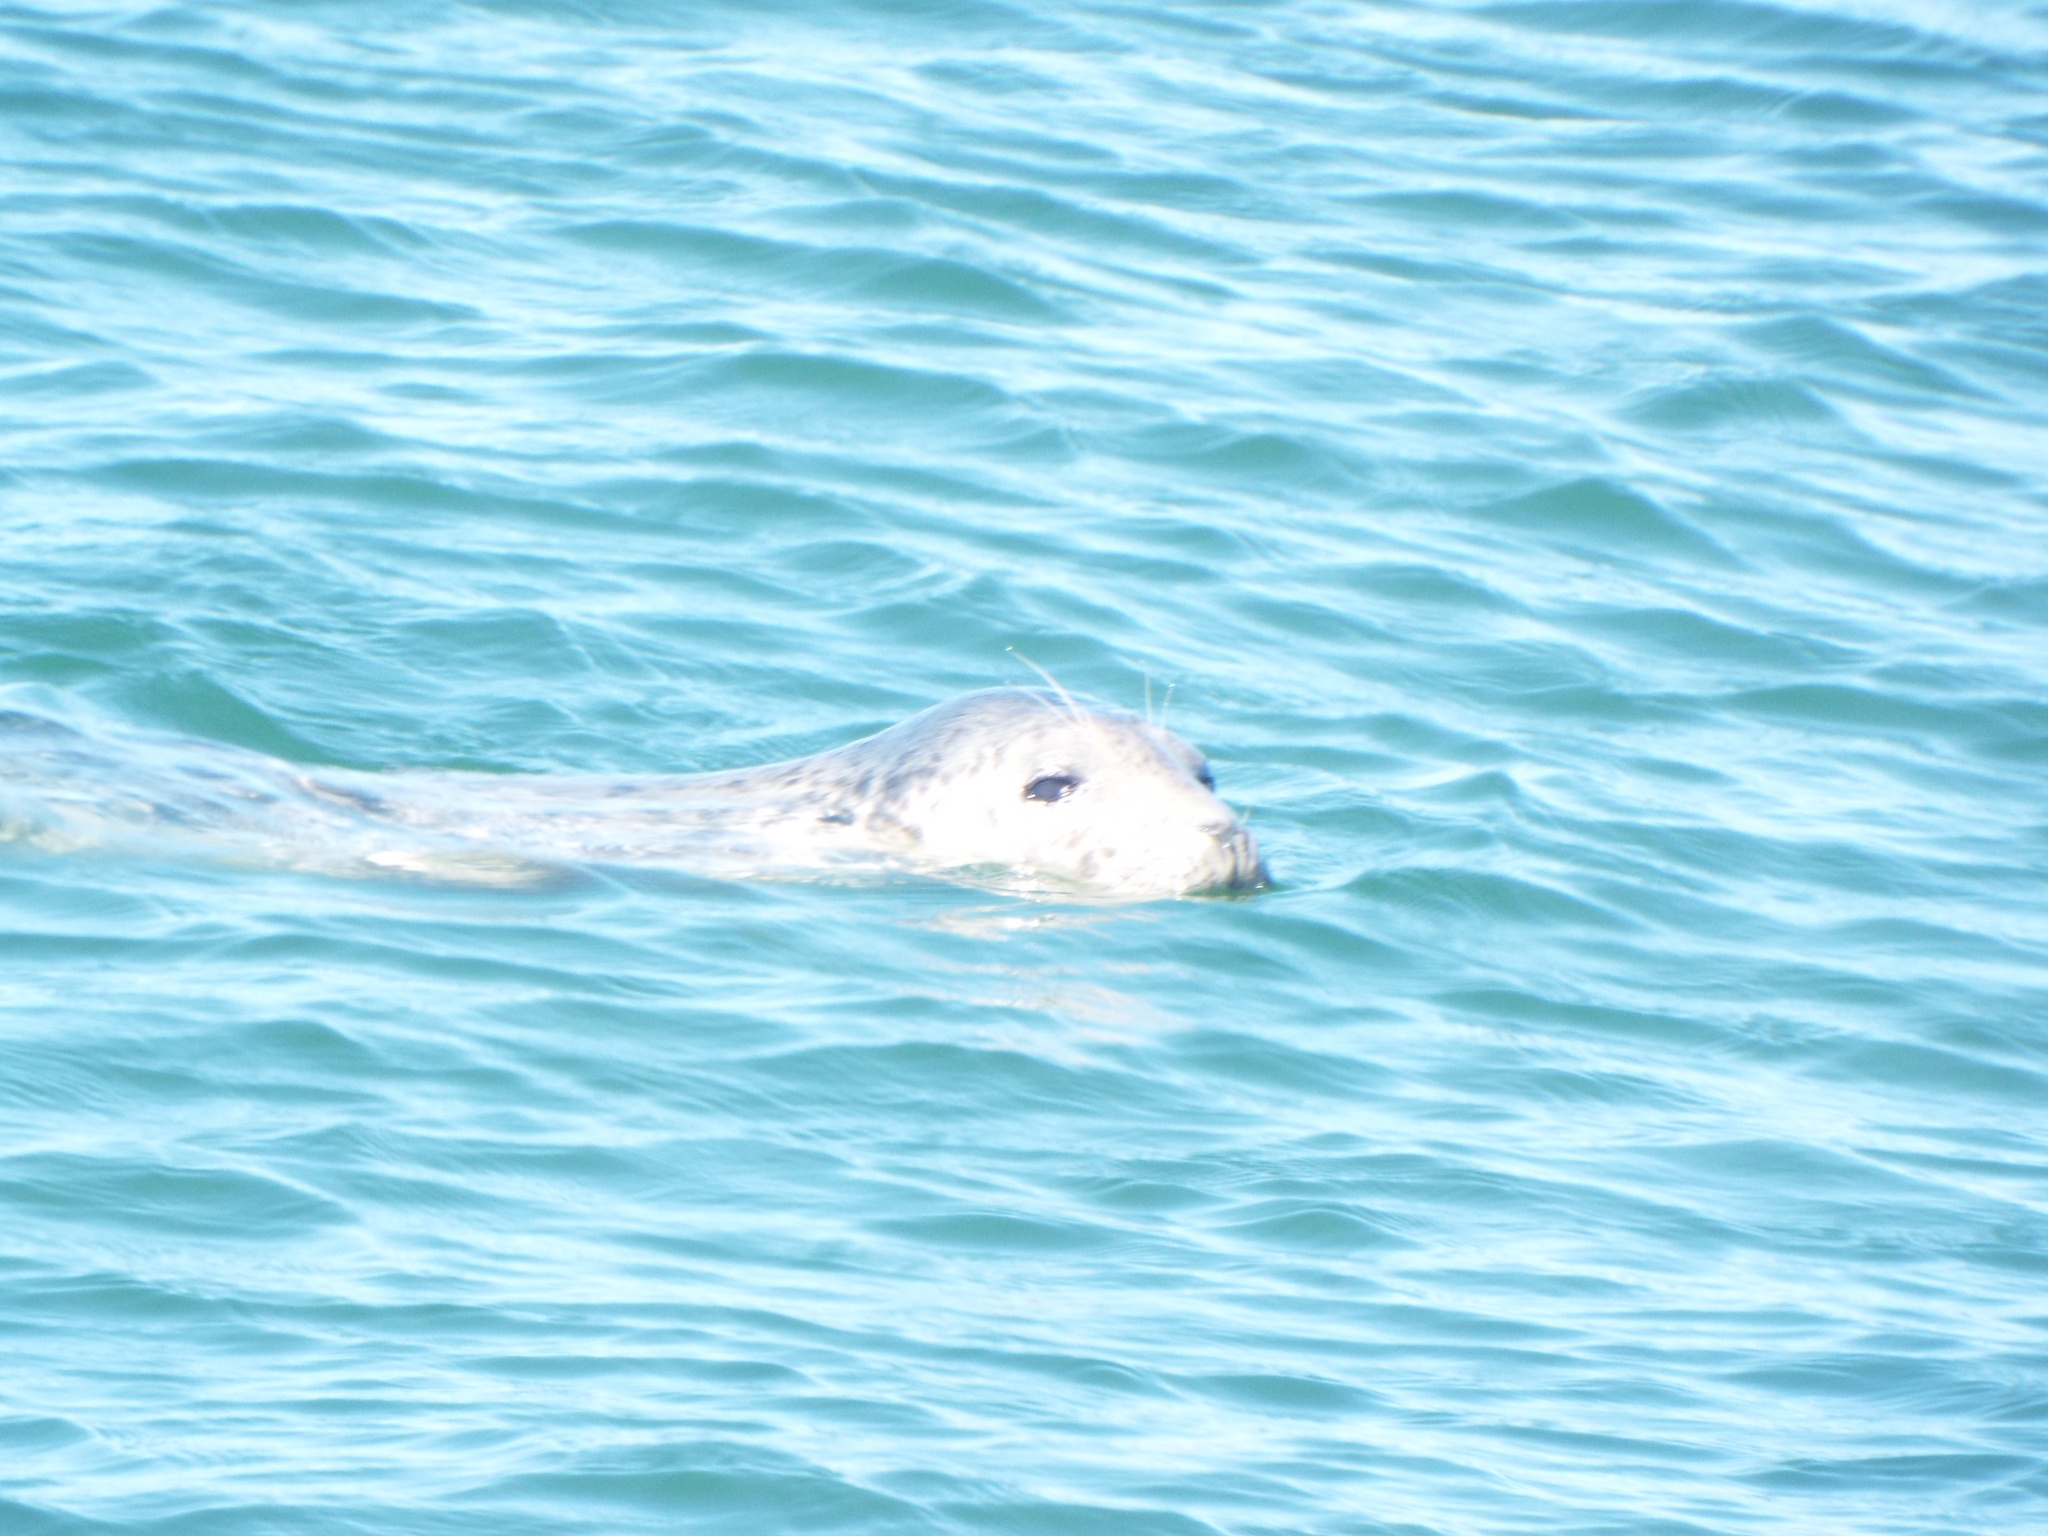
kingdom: Animalia
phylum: Chordata
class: Mammalia
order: Carnivora
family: Phocidae
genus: Halichoerus
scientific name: Halichoerus grypus
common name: Grey seal
